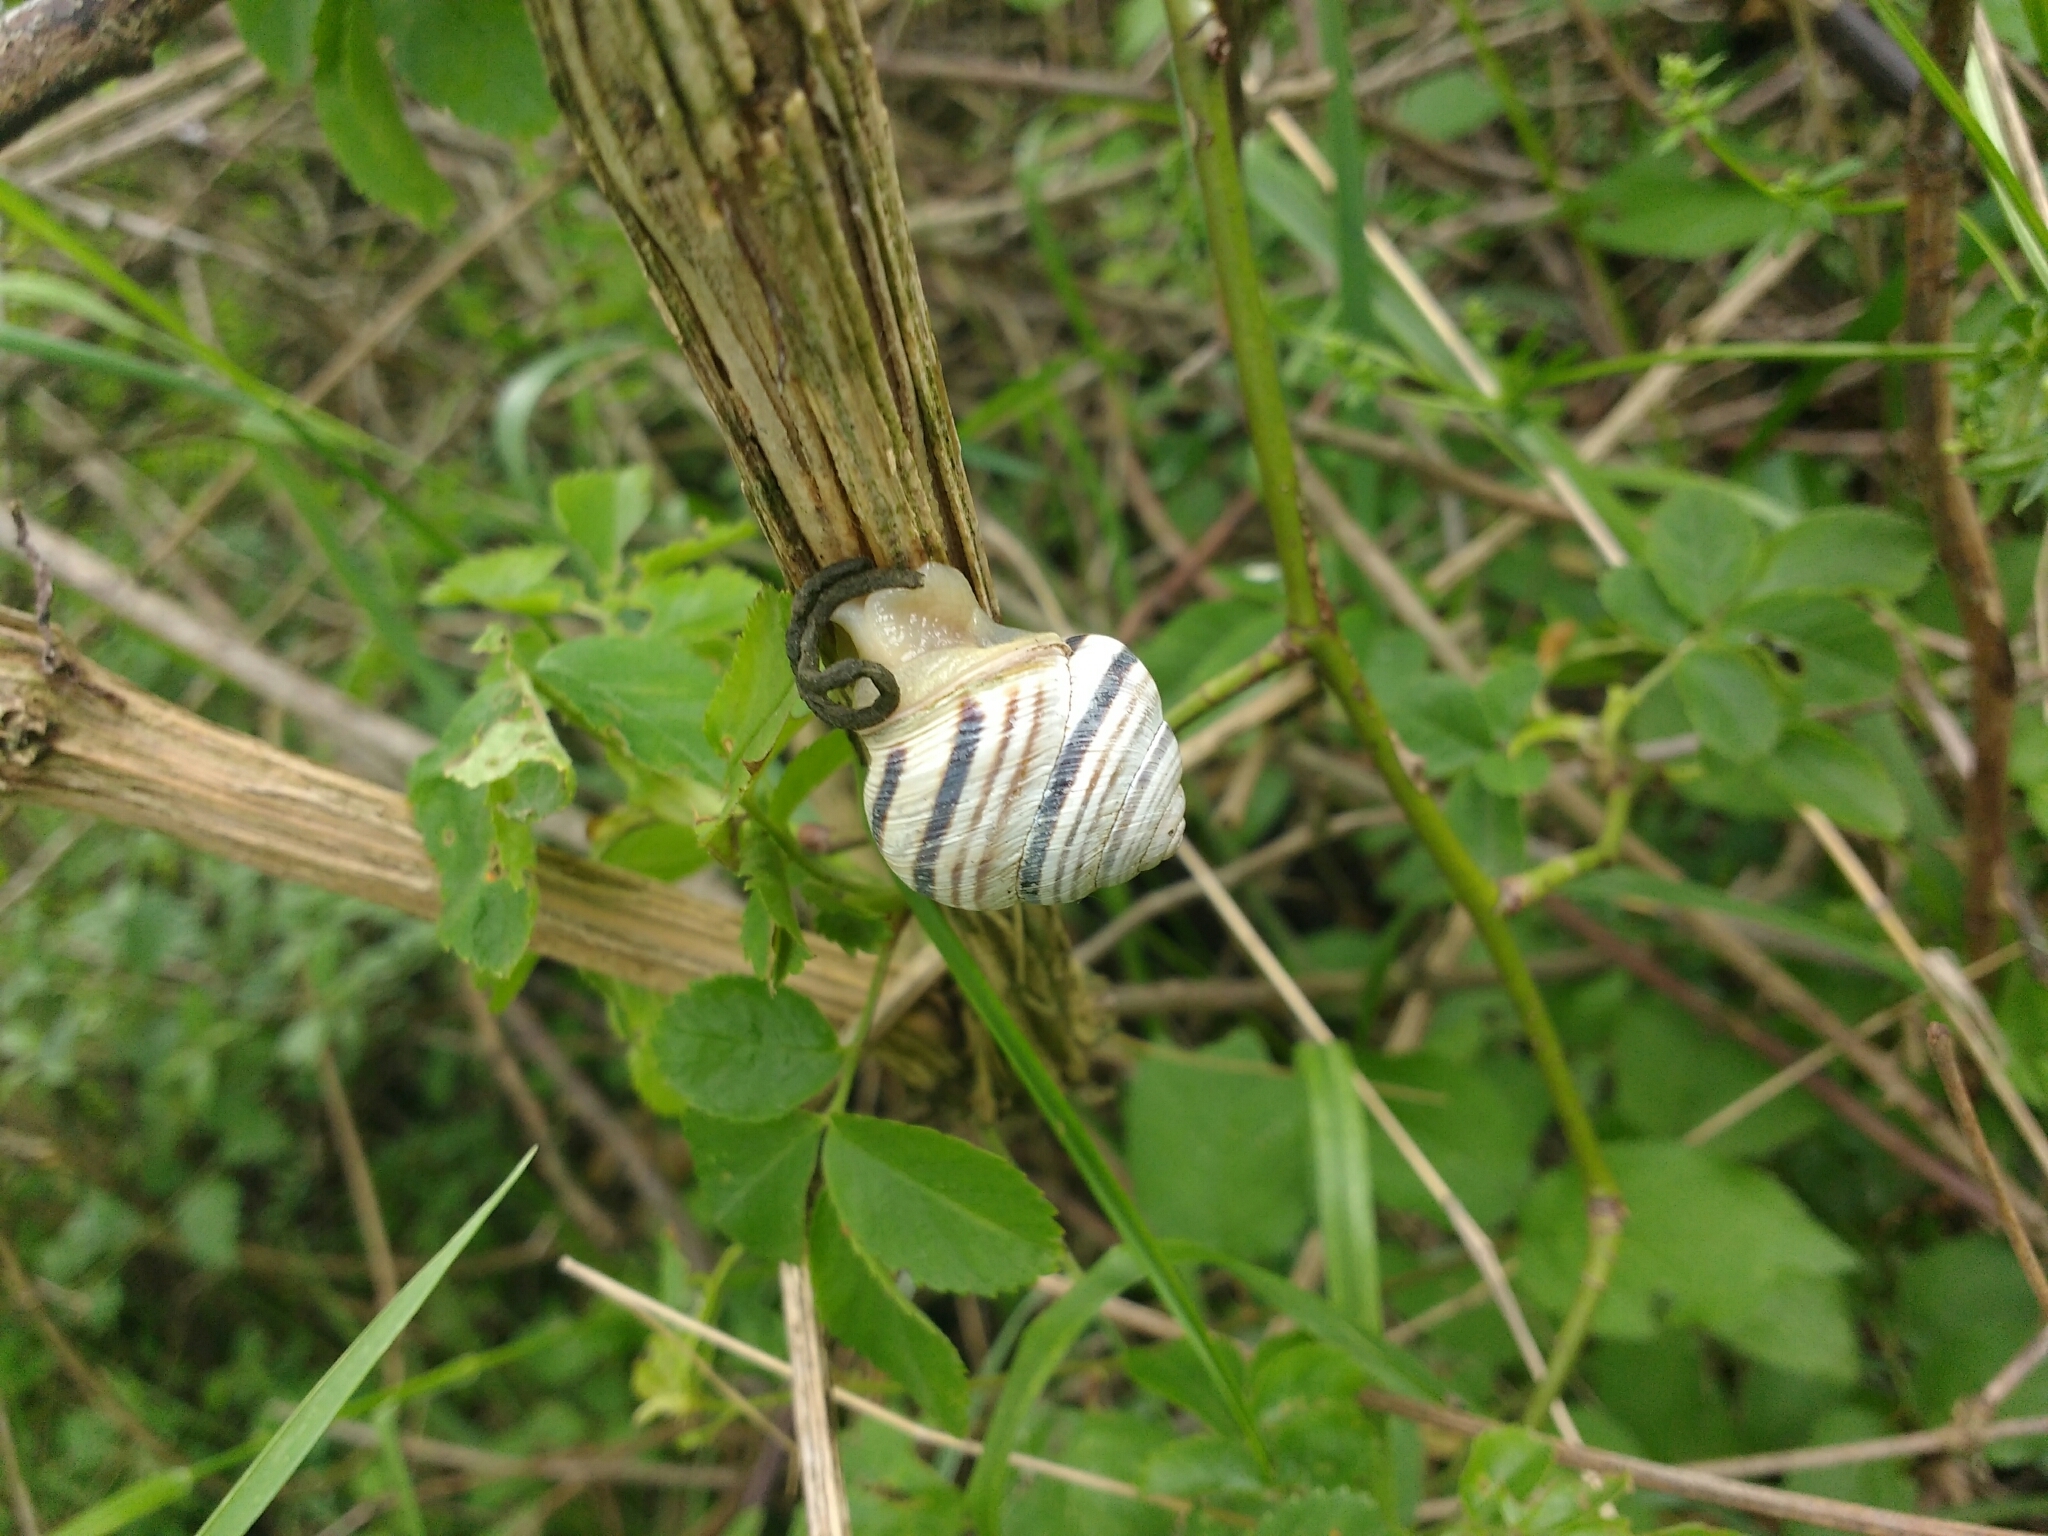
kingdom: Animalia
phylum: Mollusca
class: Gastropoda
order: Stylommatophora
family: Helicidae
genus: Caucasotachea
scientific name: Caucasotachea vindobonensis
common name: European helicid land snail
